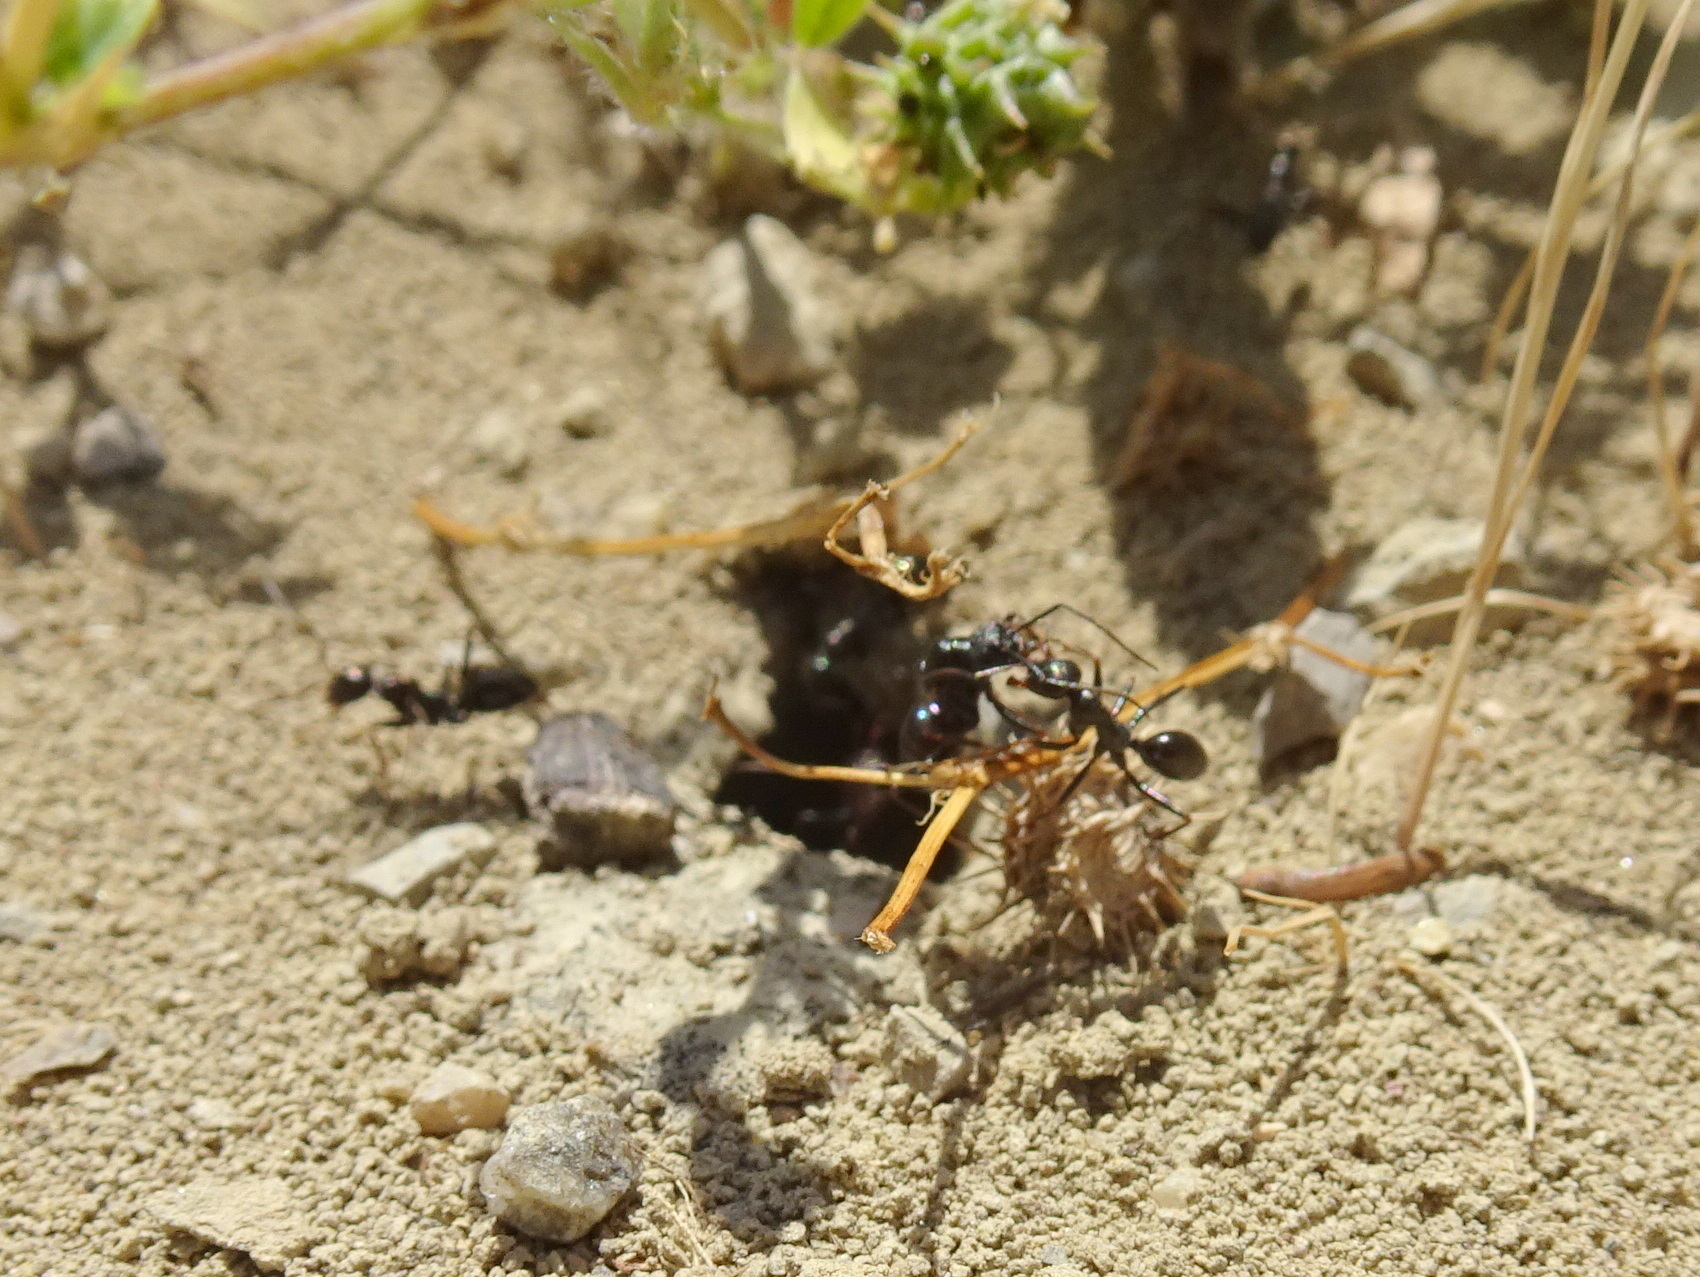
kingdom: Animalia
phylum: Arthropoda
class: Insecta
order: Hymenoptera
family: Formicidae
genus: Cataglyphis
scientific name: Cataglyphis piliscapus
